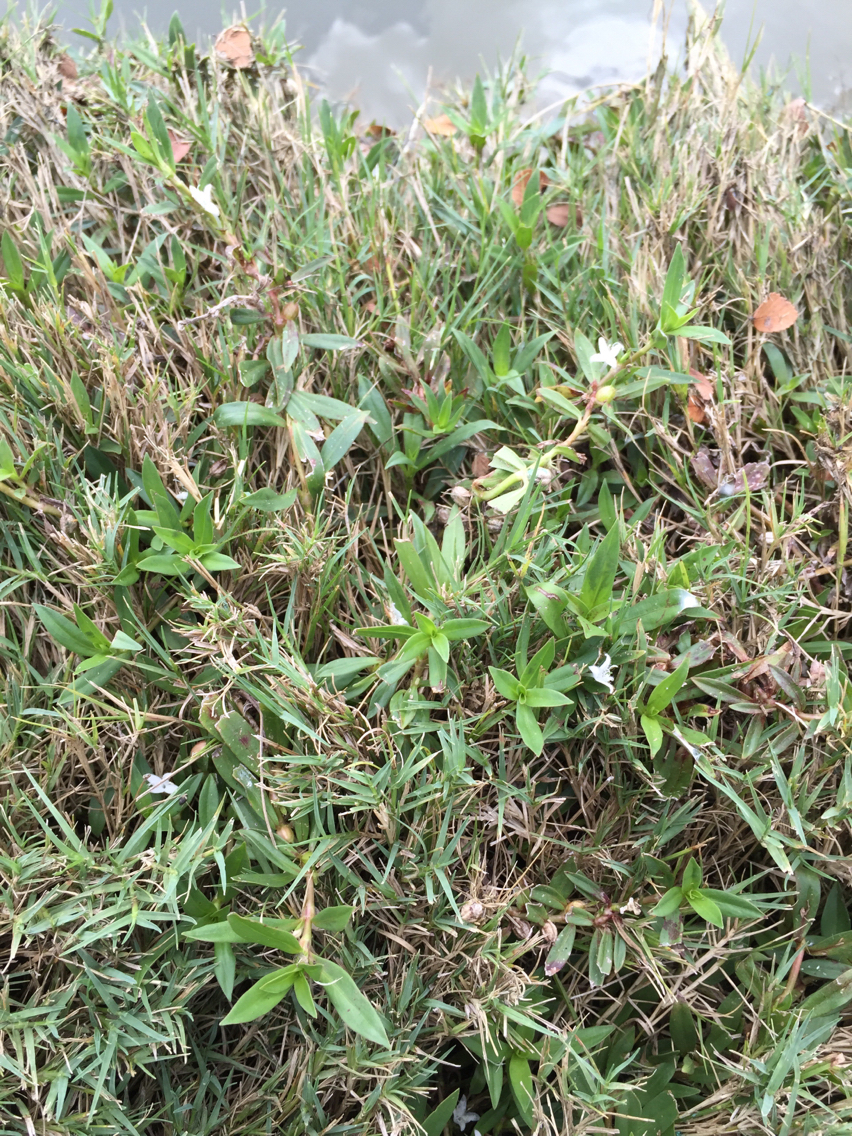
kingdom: Plantae
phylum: Tracheophyta
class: Magnoliopsida
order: Gentianales
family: Rubiaceae
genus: Diodia
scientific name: Diodia virginiana
